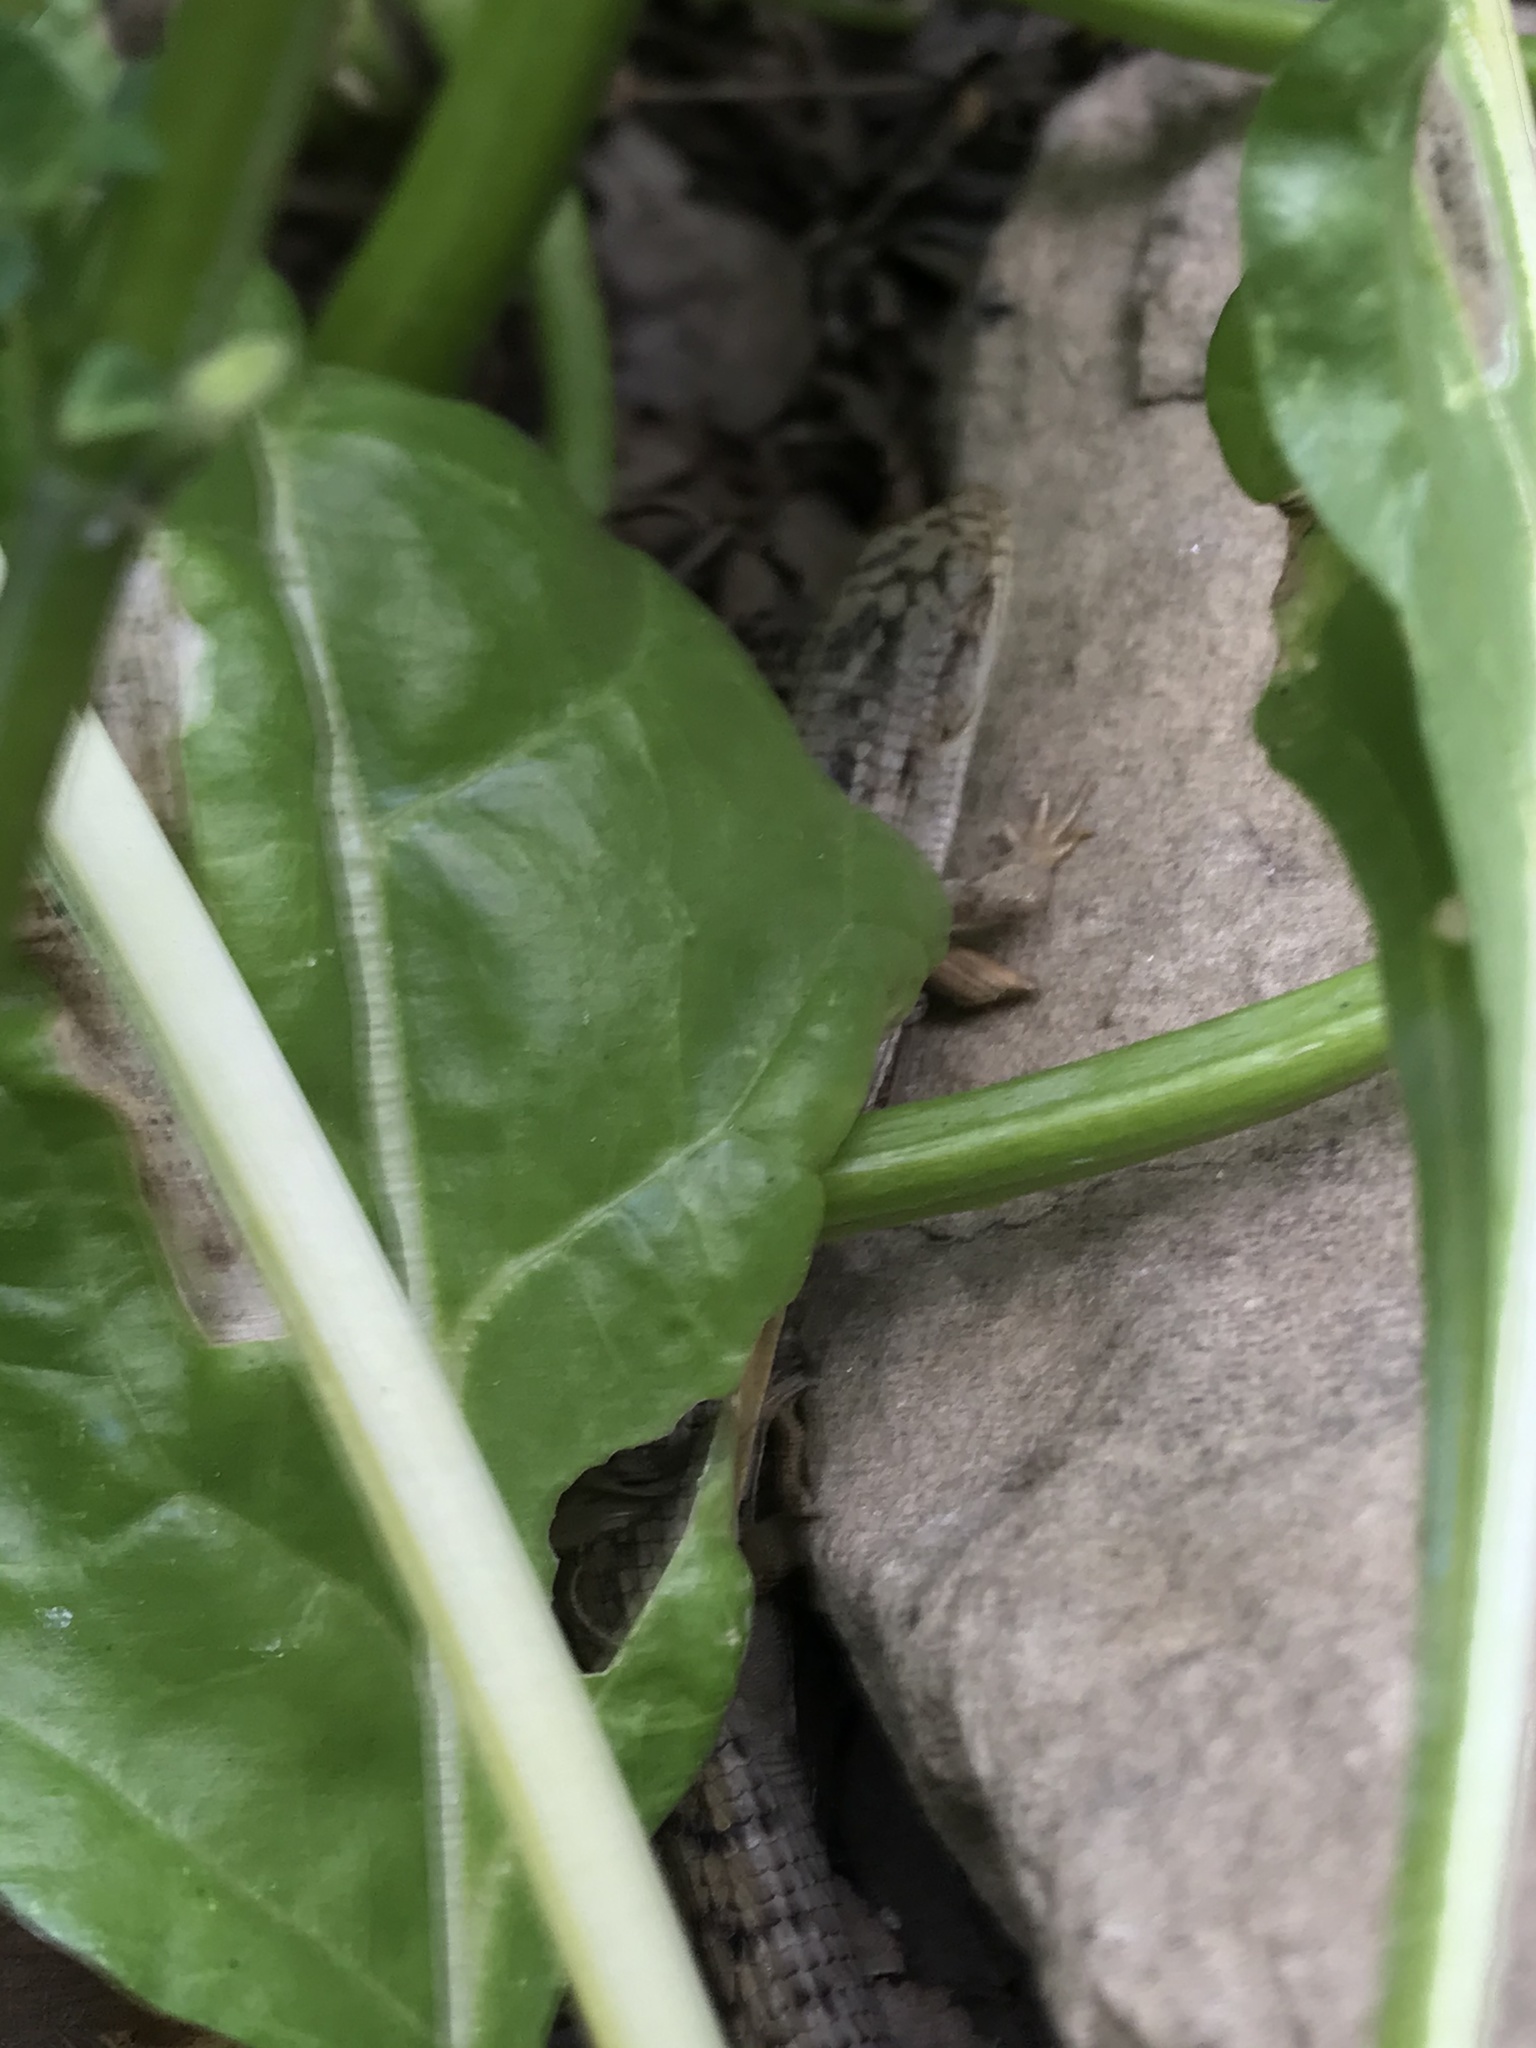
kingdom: Animalia
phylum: Chordata
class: Squamata
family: Anguidae
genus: Elgaria
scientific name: Elgaria multicarinata
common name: Southern alligator lizard
